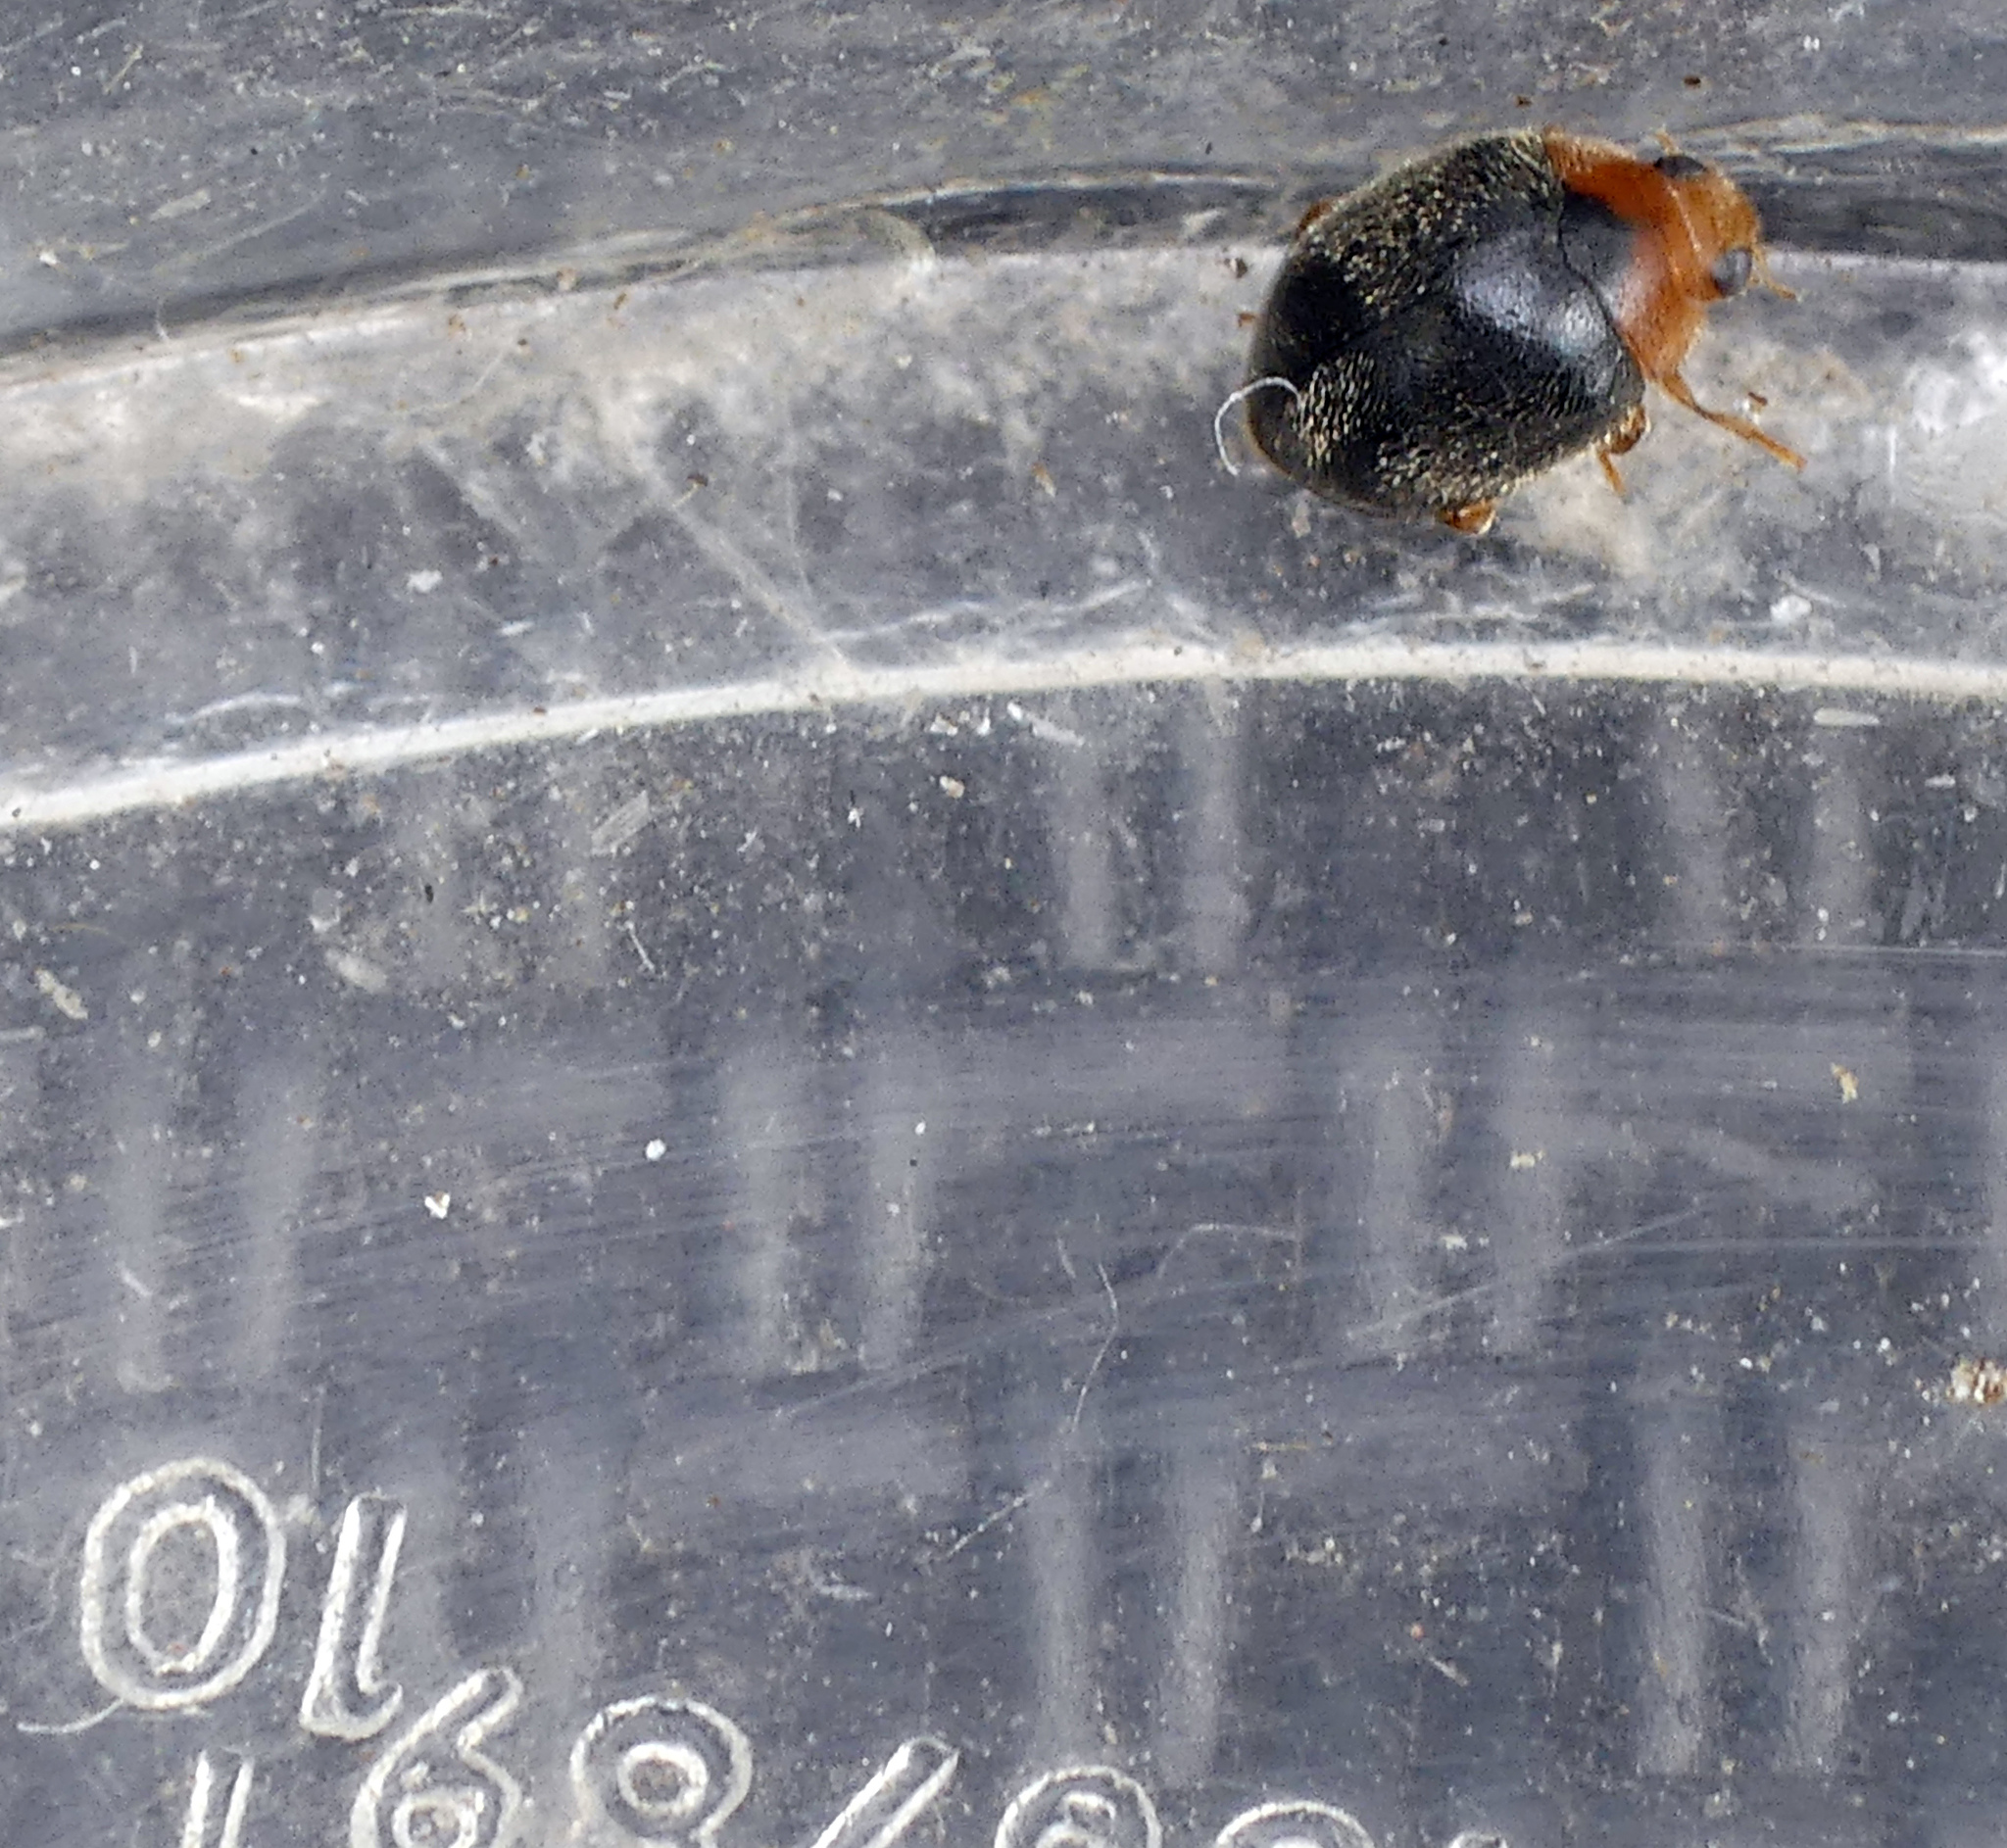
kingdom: Animalia
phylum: Arthropoda
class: Insecta
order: Coleoptera
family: Coccinellidae
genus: Scymnus
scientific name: Scymnus rubromaculatus
